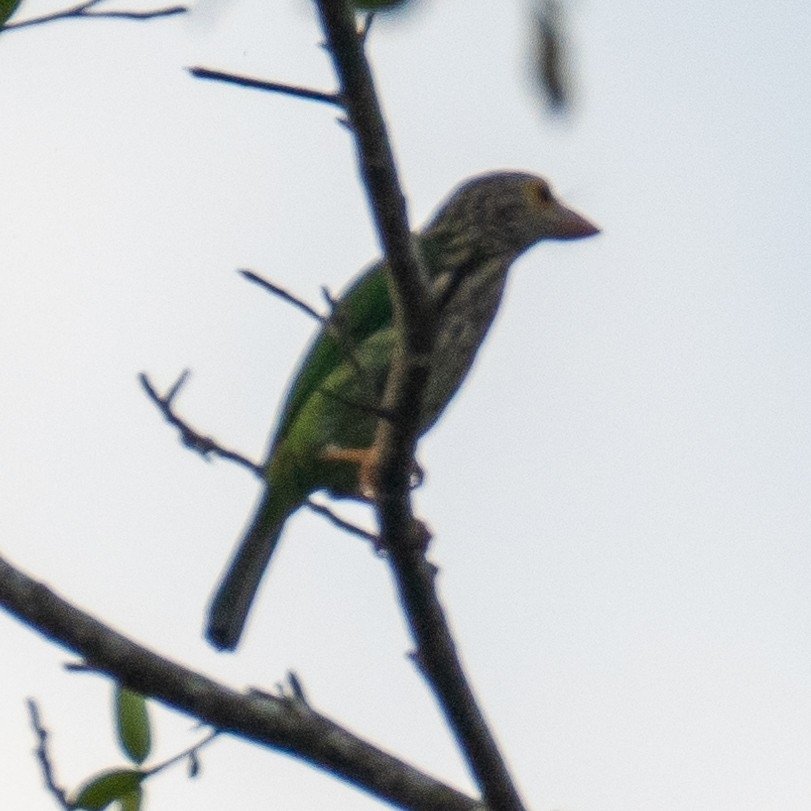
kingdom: Animalia
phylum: Chordata
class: Aves
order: Piciformes
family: Megalaimidae
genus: Psilopogon
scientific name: Psilopogon lineatus
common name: Lineated barbet
